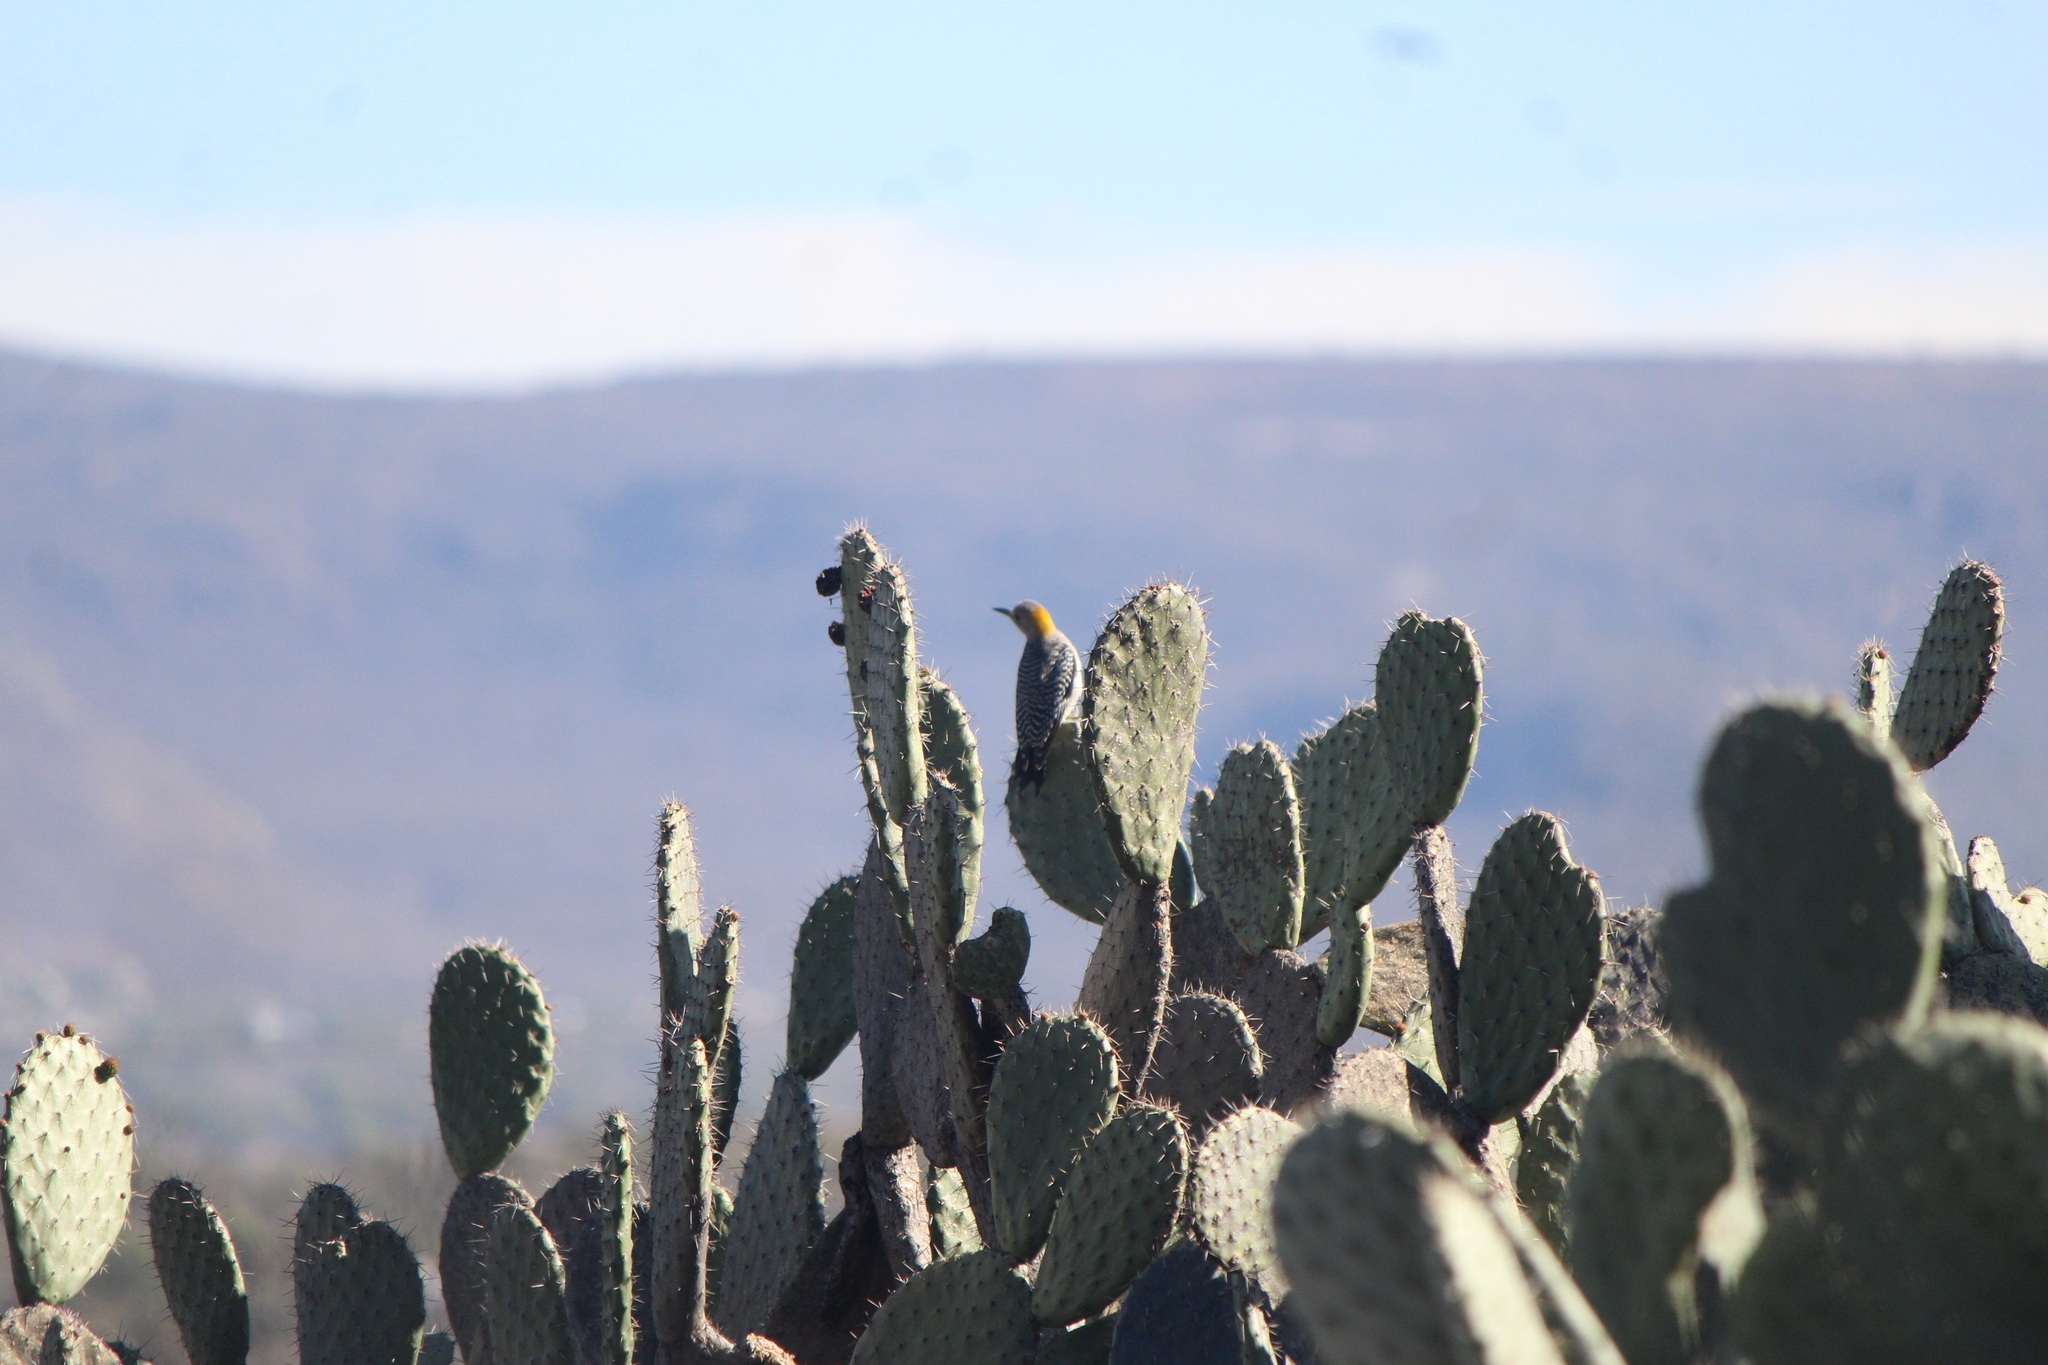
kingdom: Animalia
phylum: Chordata
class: Aves
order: Piciformes
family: Picidae
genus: Melanerpes
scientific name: Melanerpes aurifrons
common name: Golden-fronted woodpecker
